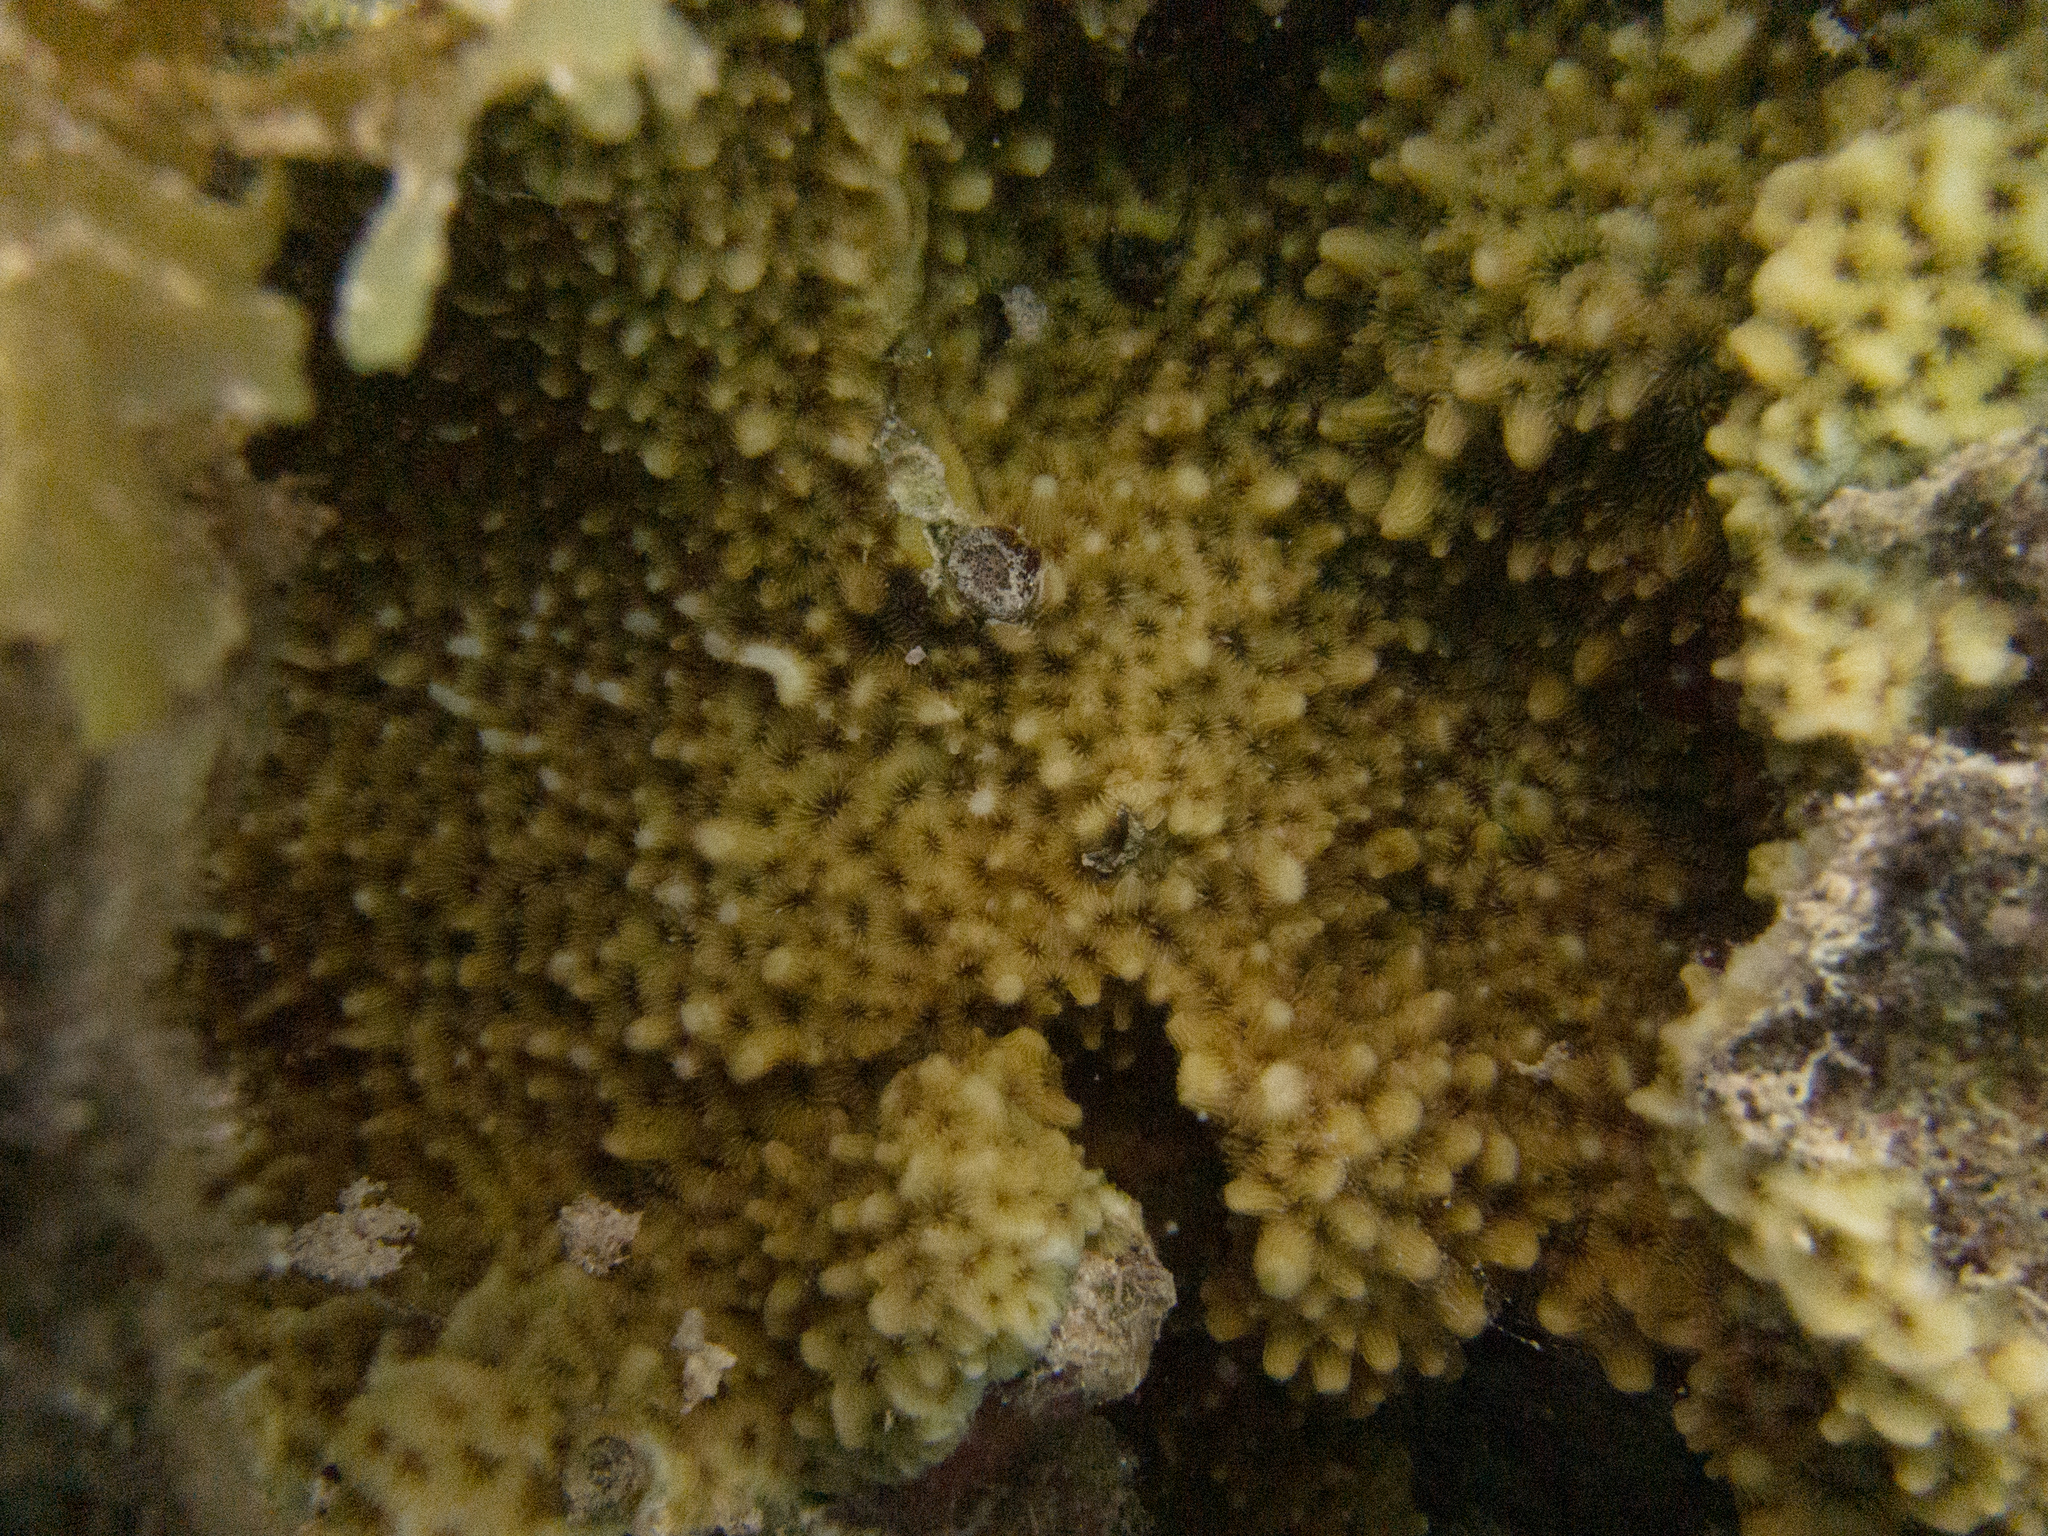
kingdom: Animalia
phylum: Cnidaria
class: Anthozoa
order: Scleractinia
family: Agariciidae
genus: Pavona
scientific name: Pavona varians
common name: Leaf coral
